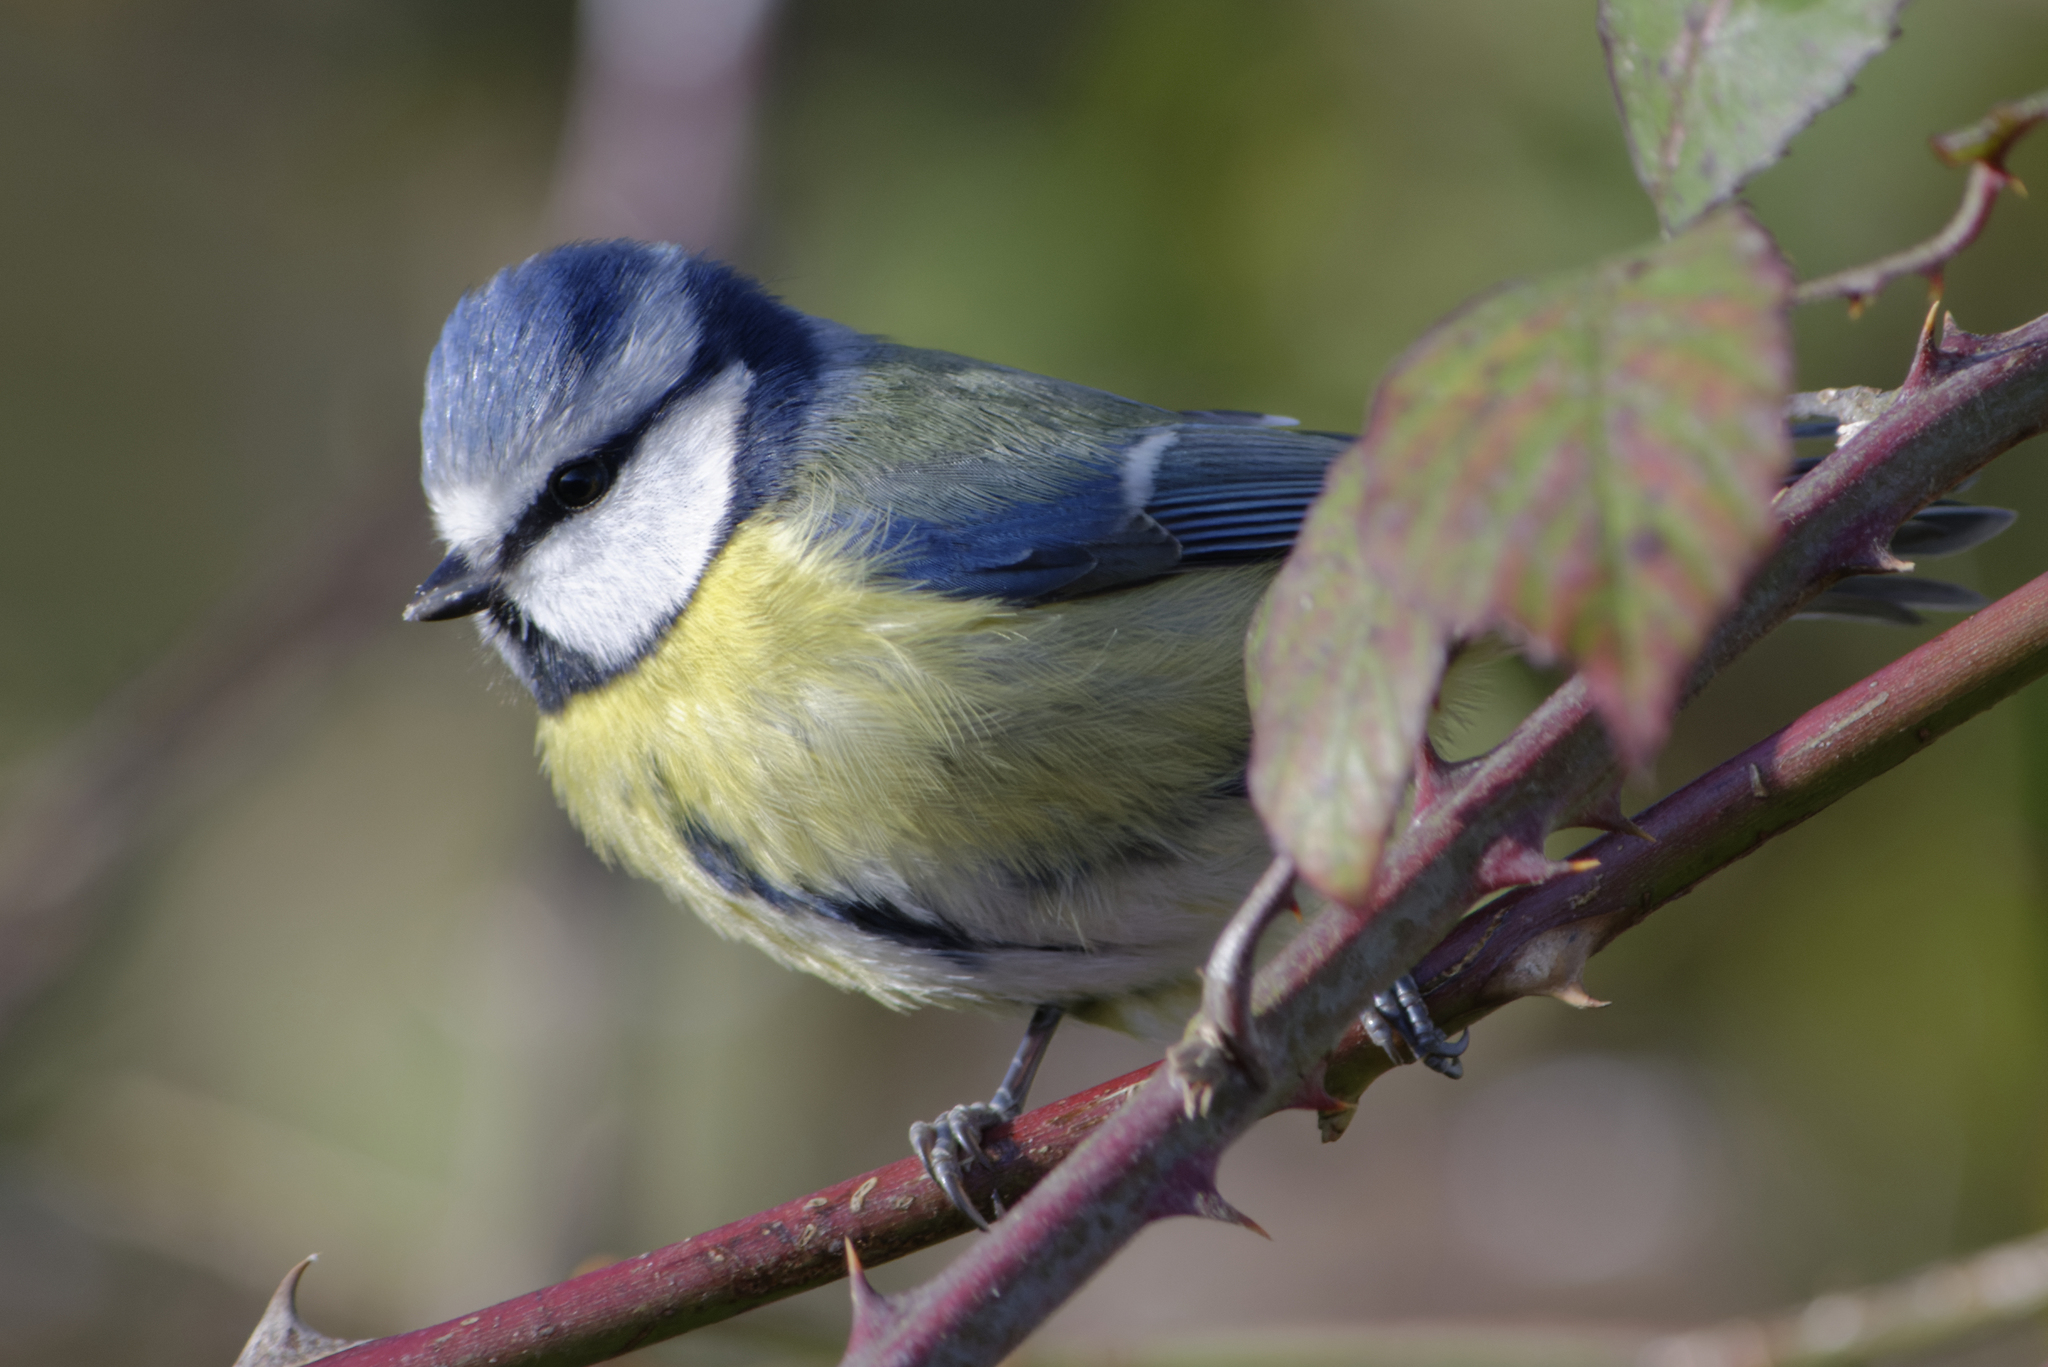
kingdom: Animalia
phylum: Chordata
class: Aves
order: Passeriformes
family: Paridae
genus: Cyanistes
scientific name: Cyanistes caeruleus
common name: Eurasian blue tit
